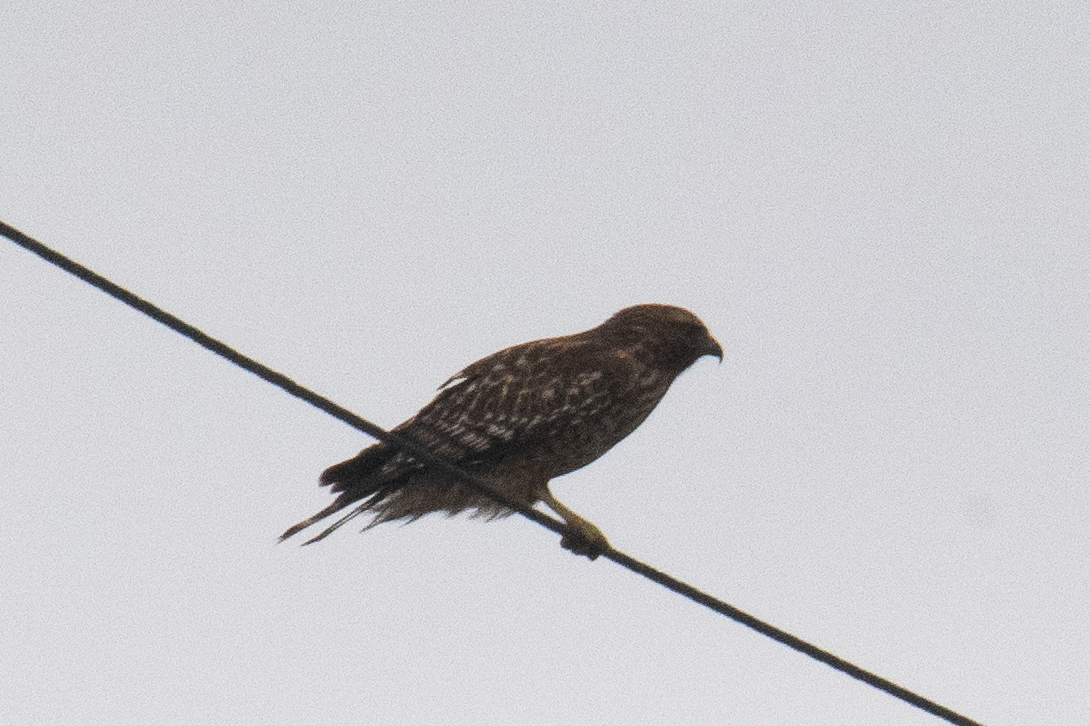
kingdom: Animalia
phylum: Chordata
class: Aves
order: Accipitriformes
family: Accipitridae
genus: Buteo
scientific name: Buteo lineatus
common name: Red-shouldered hawk
